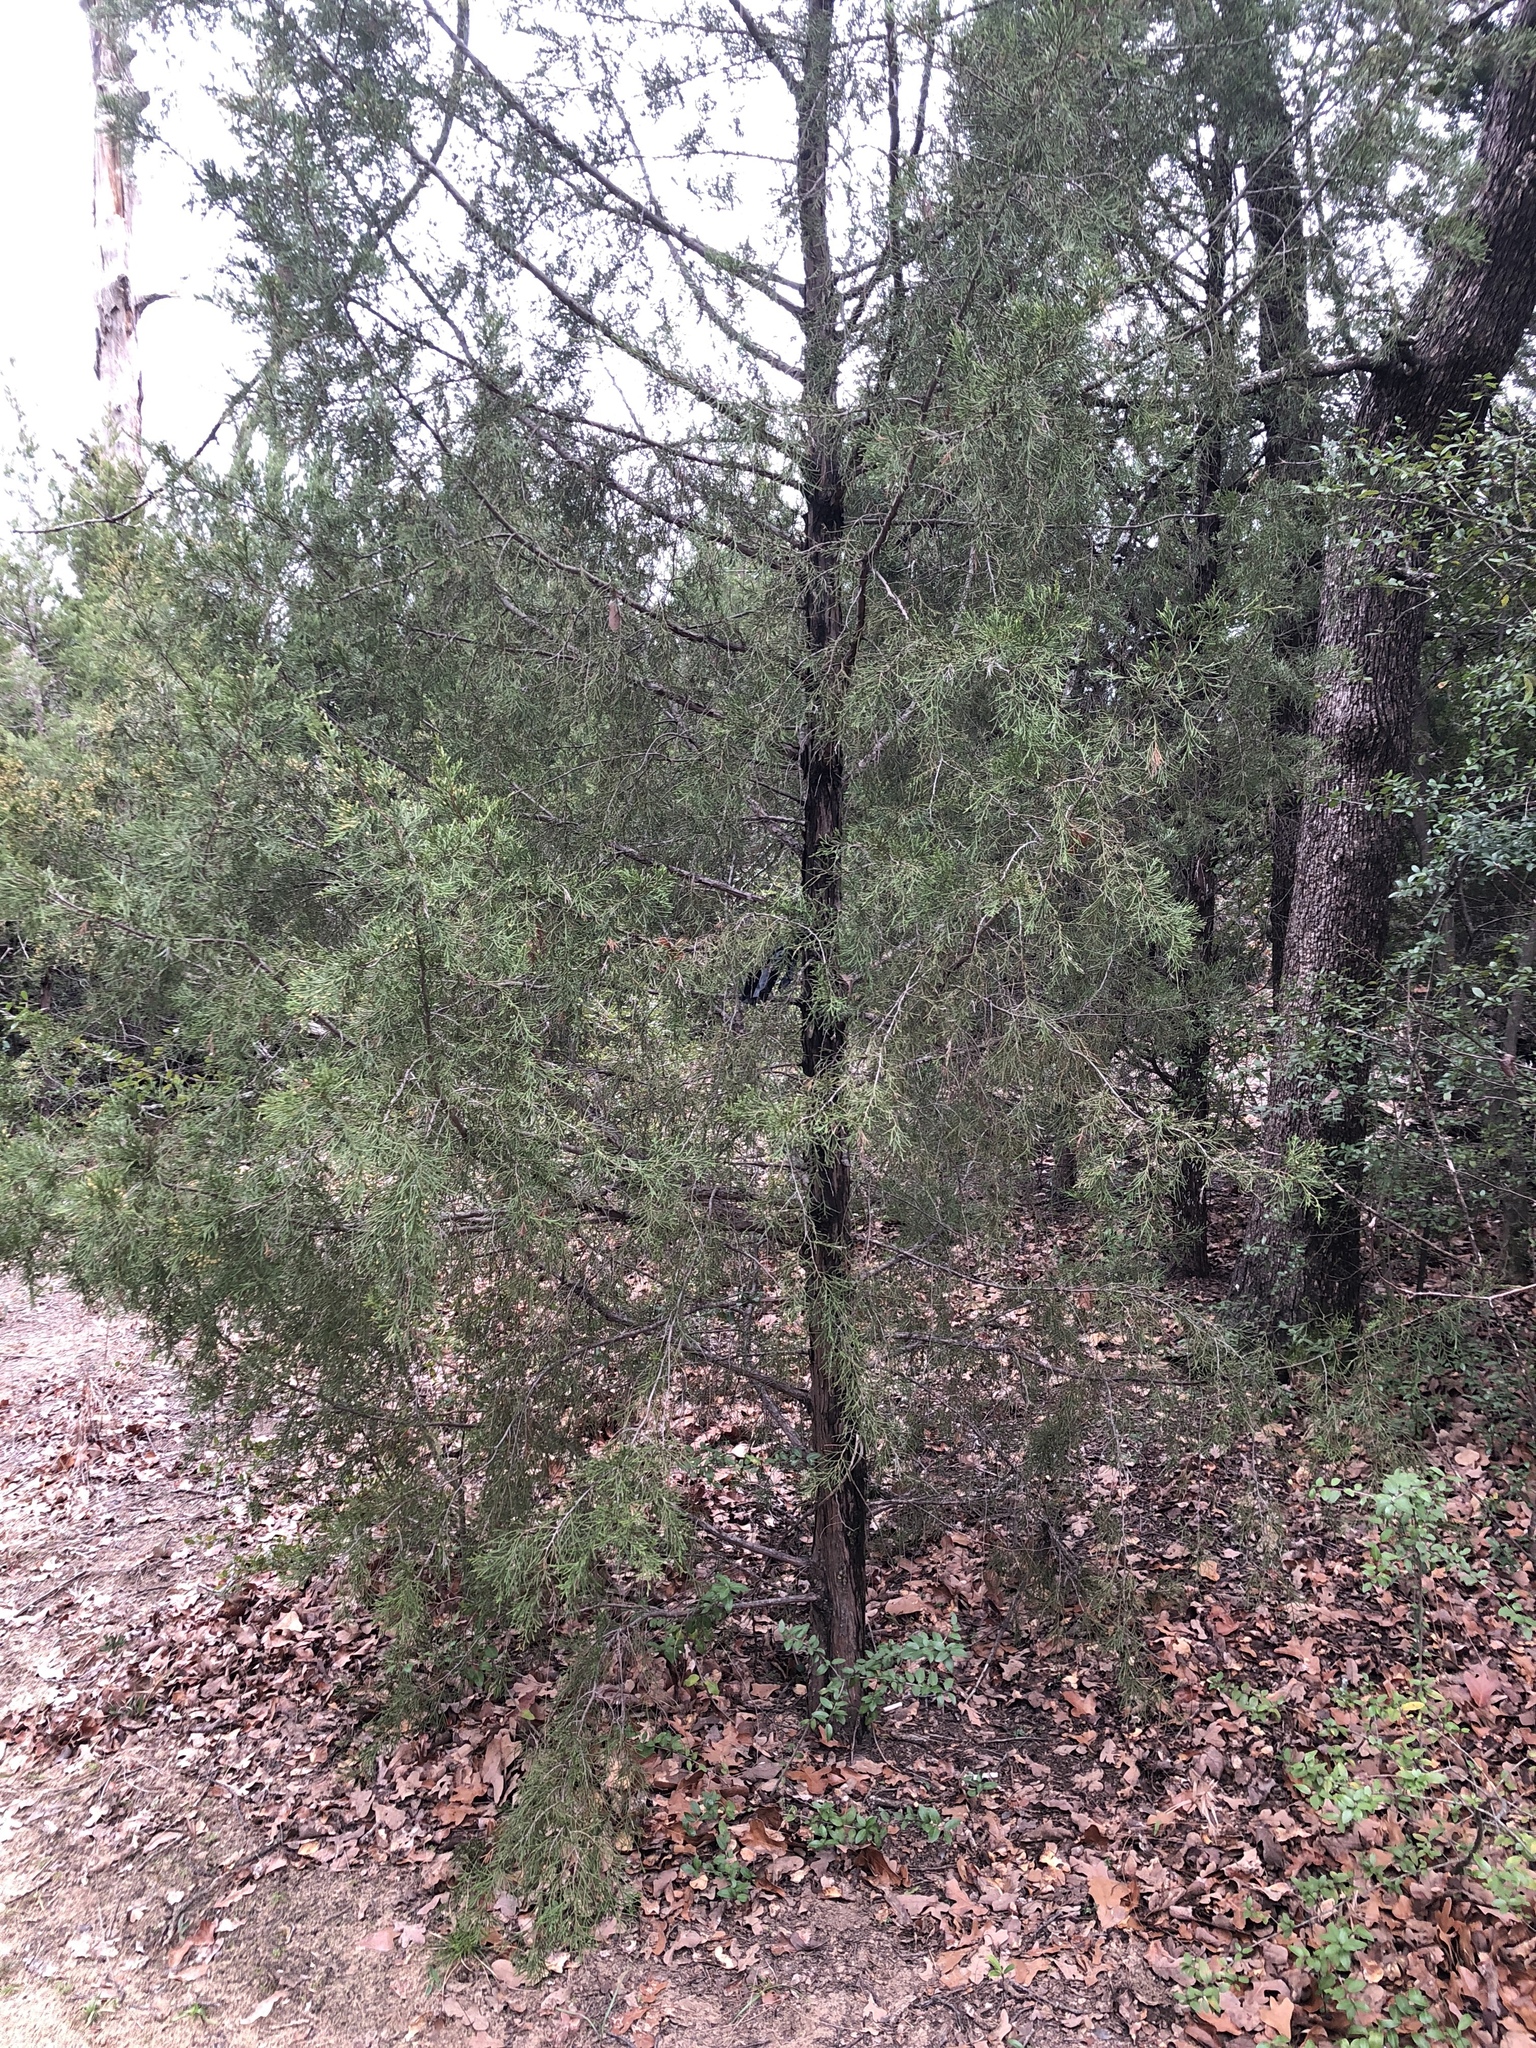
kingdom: Plantae
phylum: Tracheophyta
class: Pinopsida
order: Pinales
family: Cupressaceae
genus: Juniperus
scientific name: Juniperus virginiana
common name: Red juniper
